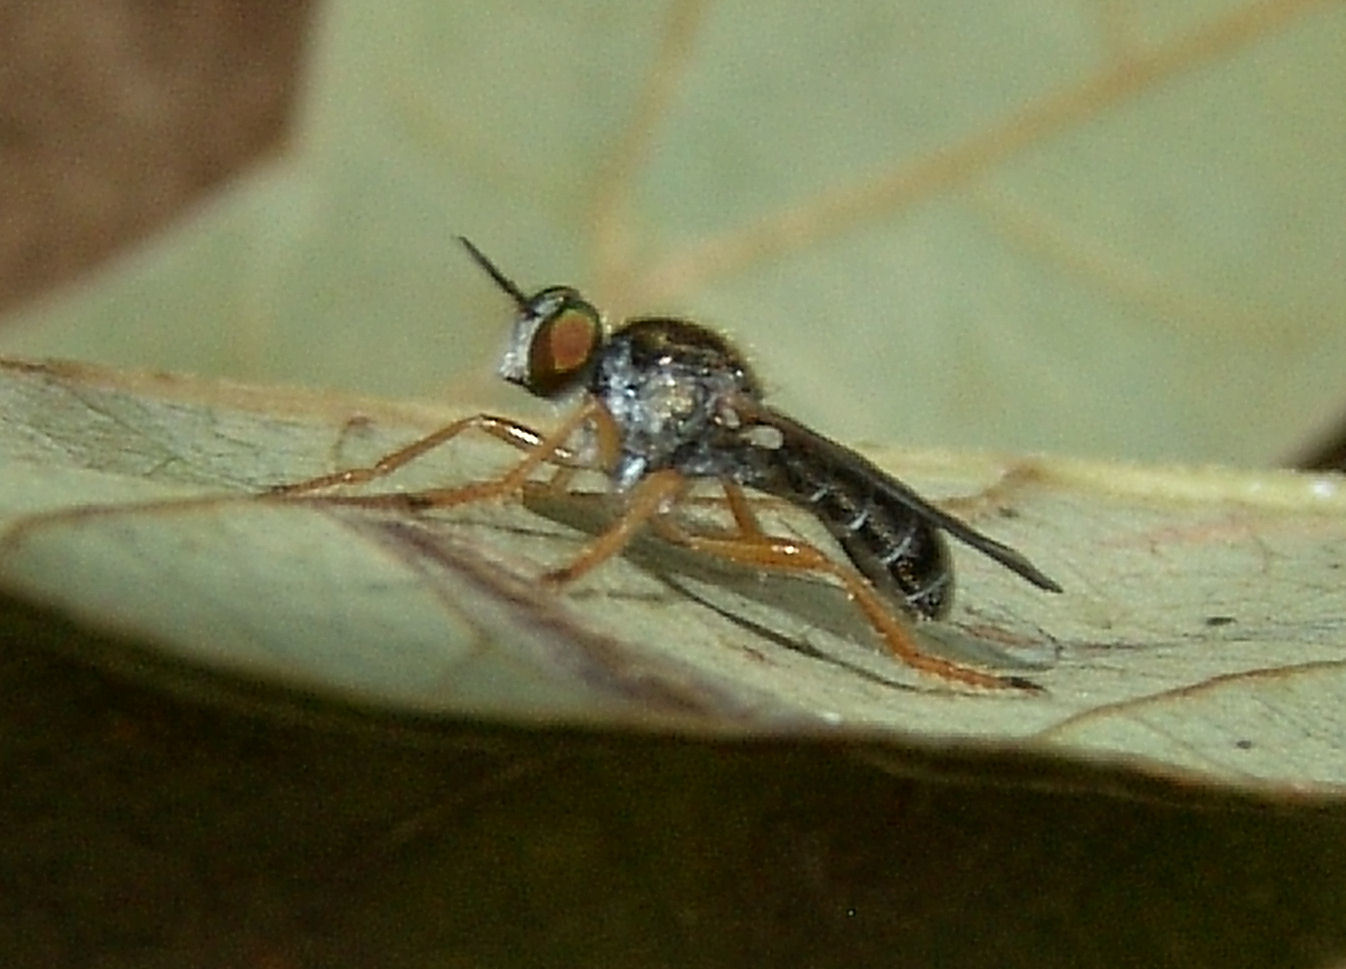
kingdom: Animalia
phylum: Arthropoda
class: Insecta
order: Diptera
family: Asilidae
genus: Atomosia
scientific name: Atomosia sayii
